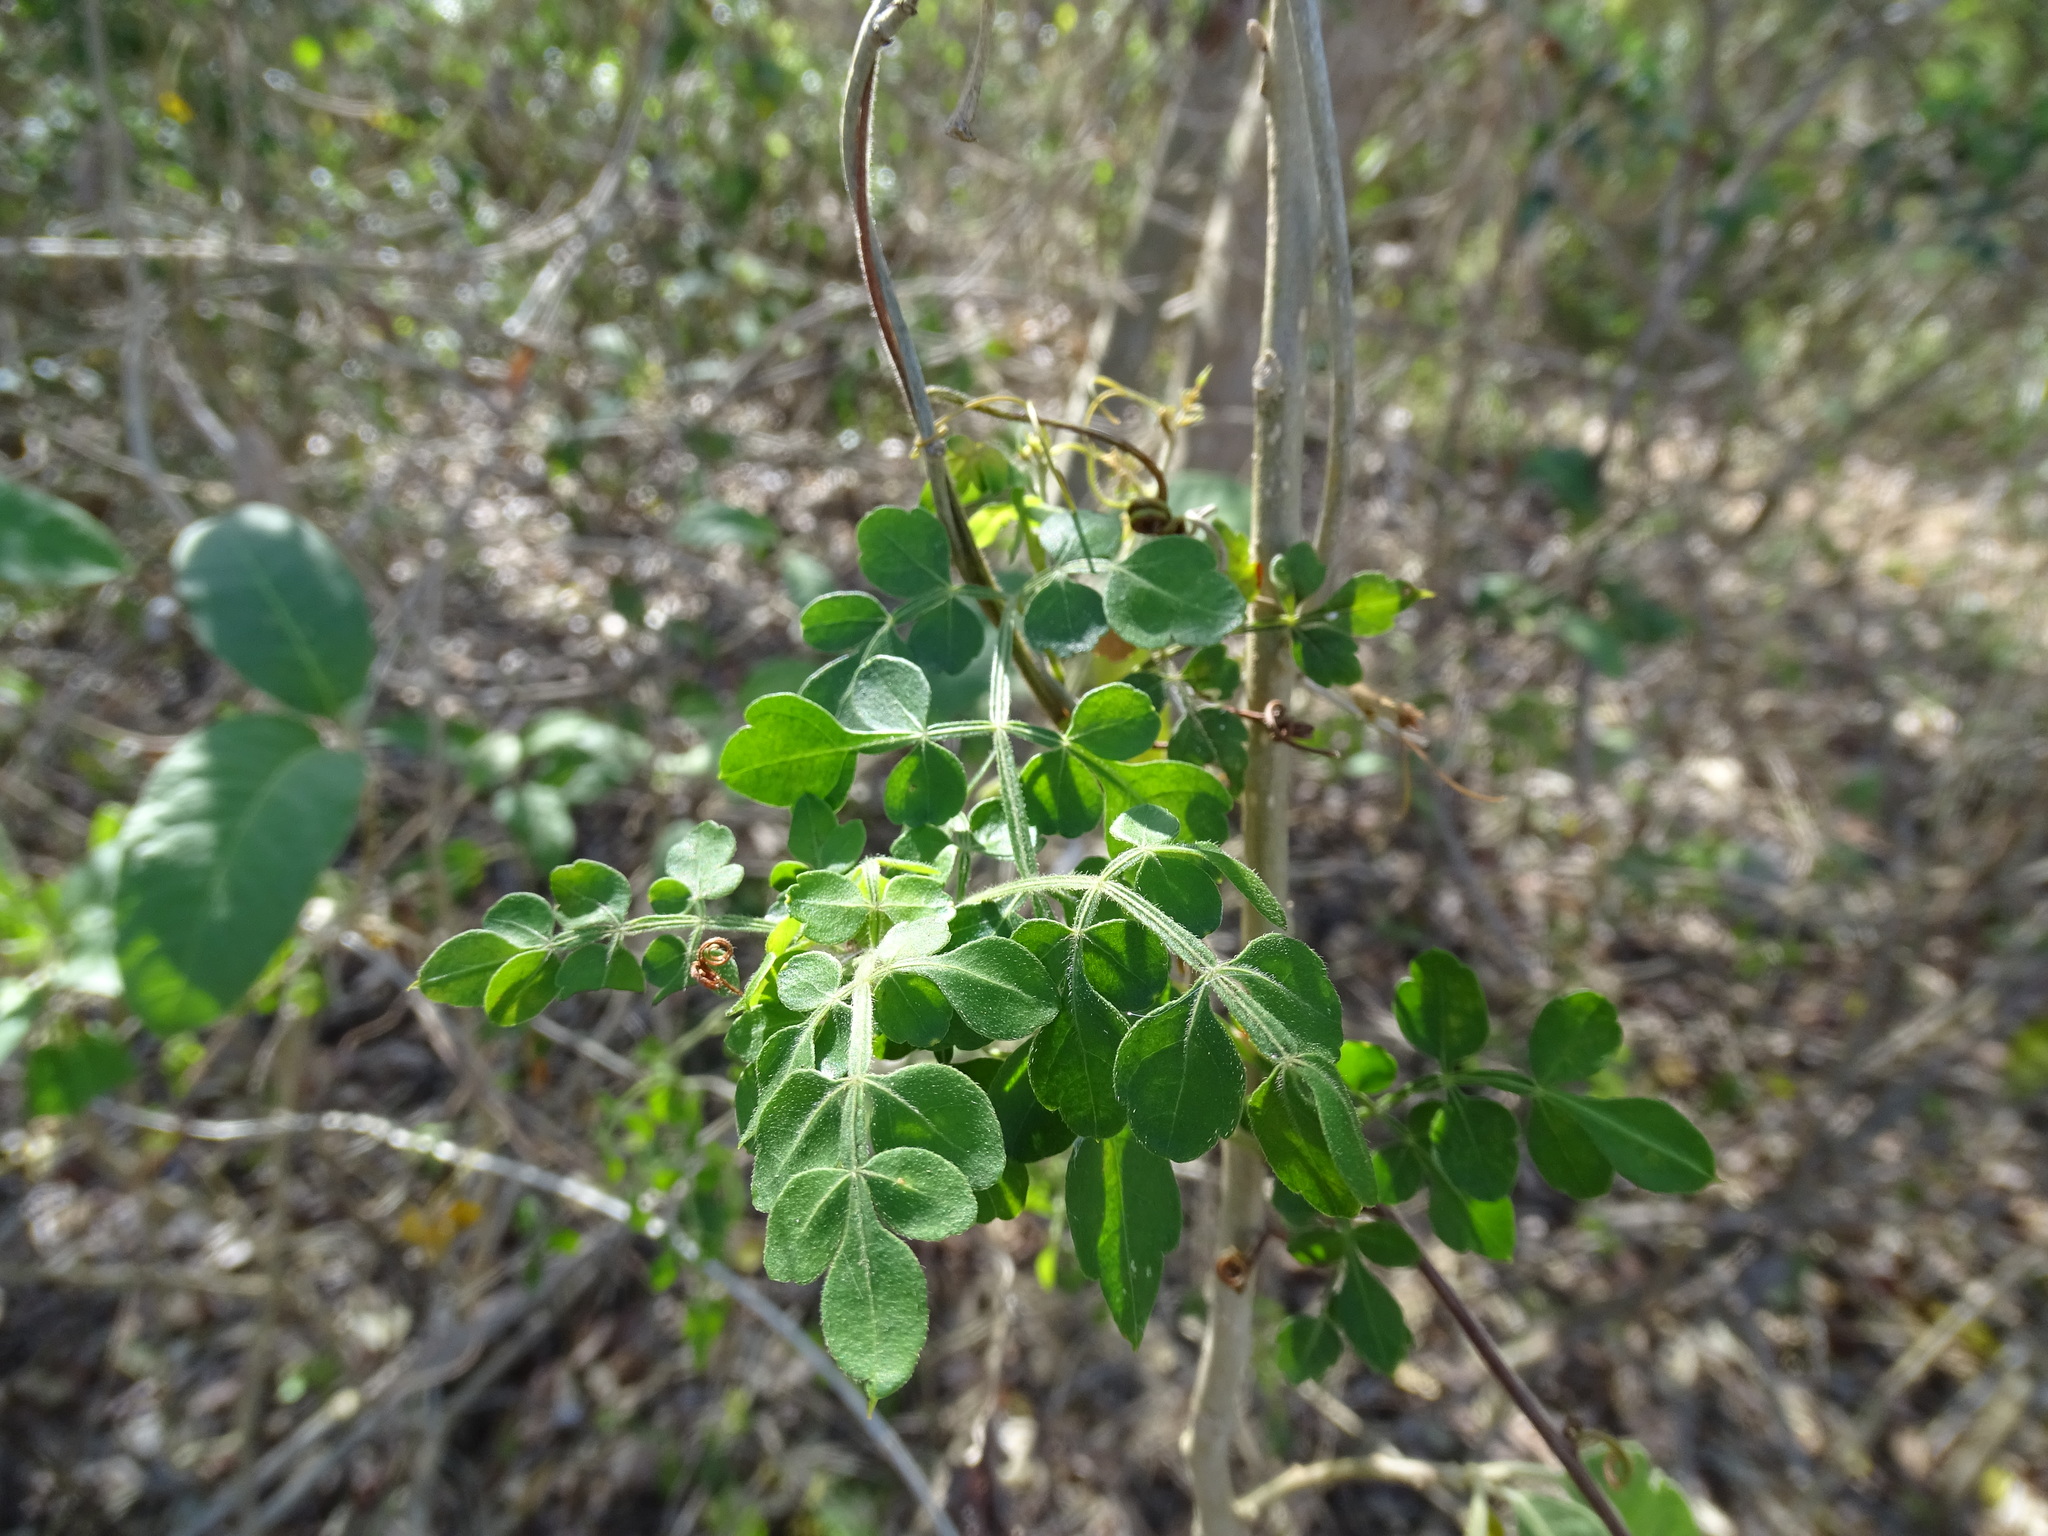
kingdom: Plantae
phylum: Tracheophyta
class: Magnoliopsida
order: Sapindales
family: Sapindaceae
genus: Serjania
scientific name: Serjania adiantoides
